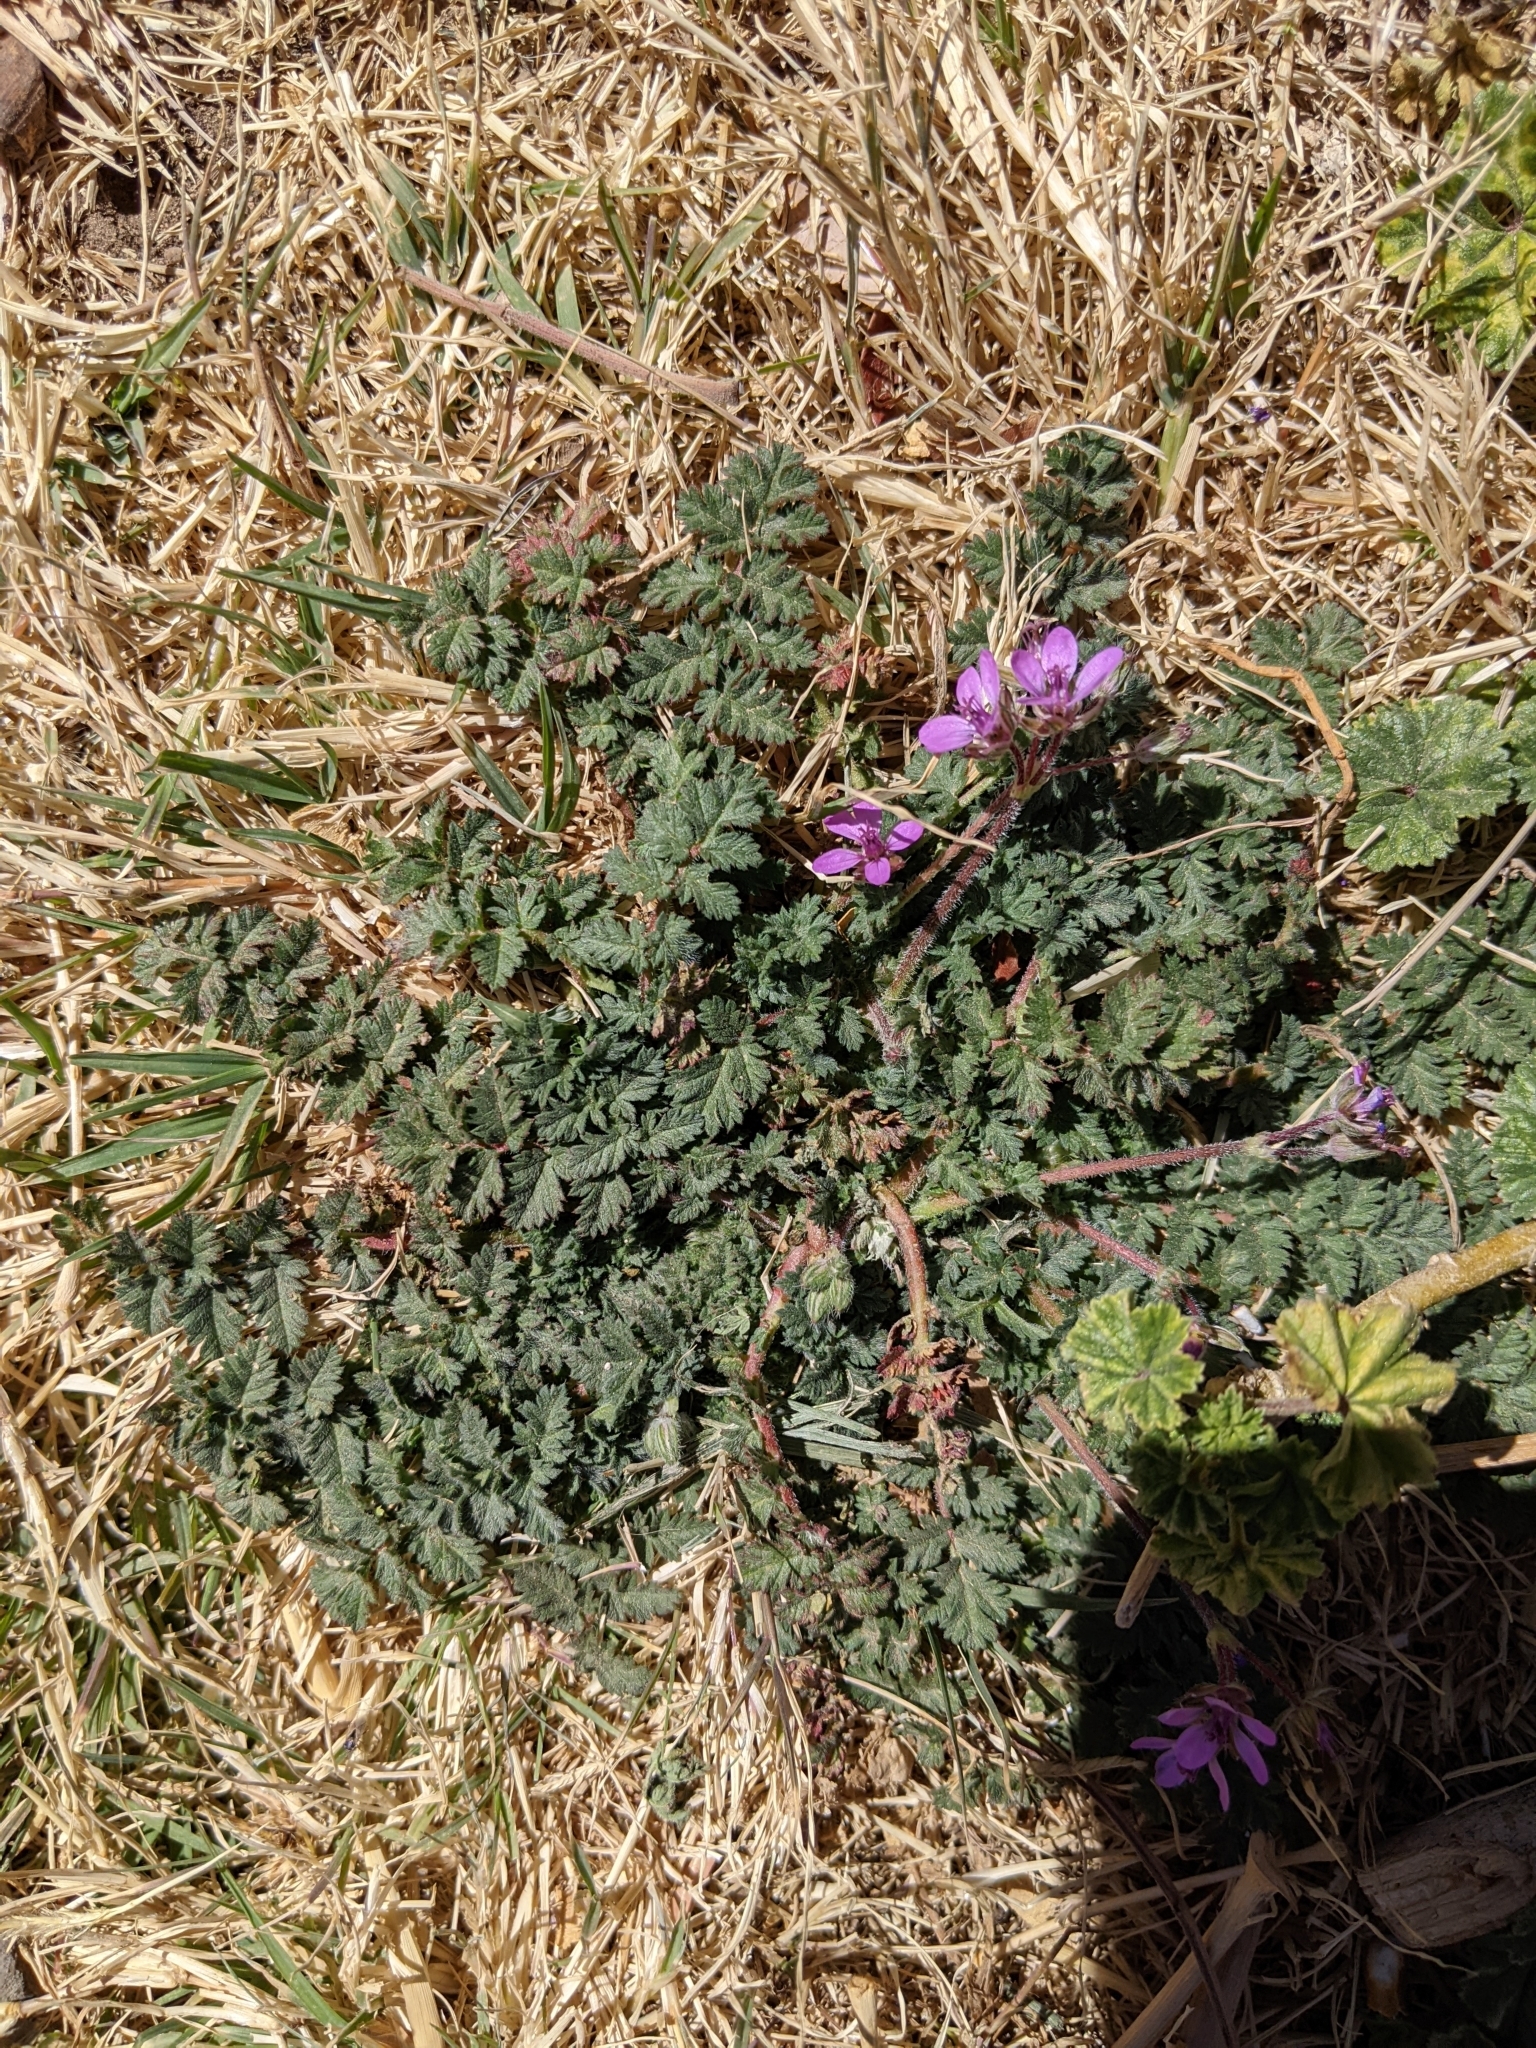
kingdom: Plantae
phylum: Tracheophyta
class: Magnoliopsida
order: Geraniales
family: Geraniaceae
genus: Erodium
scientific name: Erodium cicutarium
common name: Common stork's-bill
